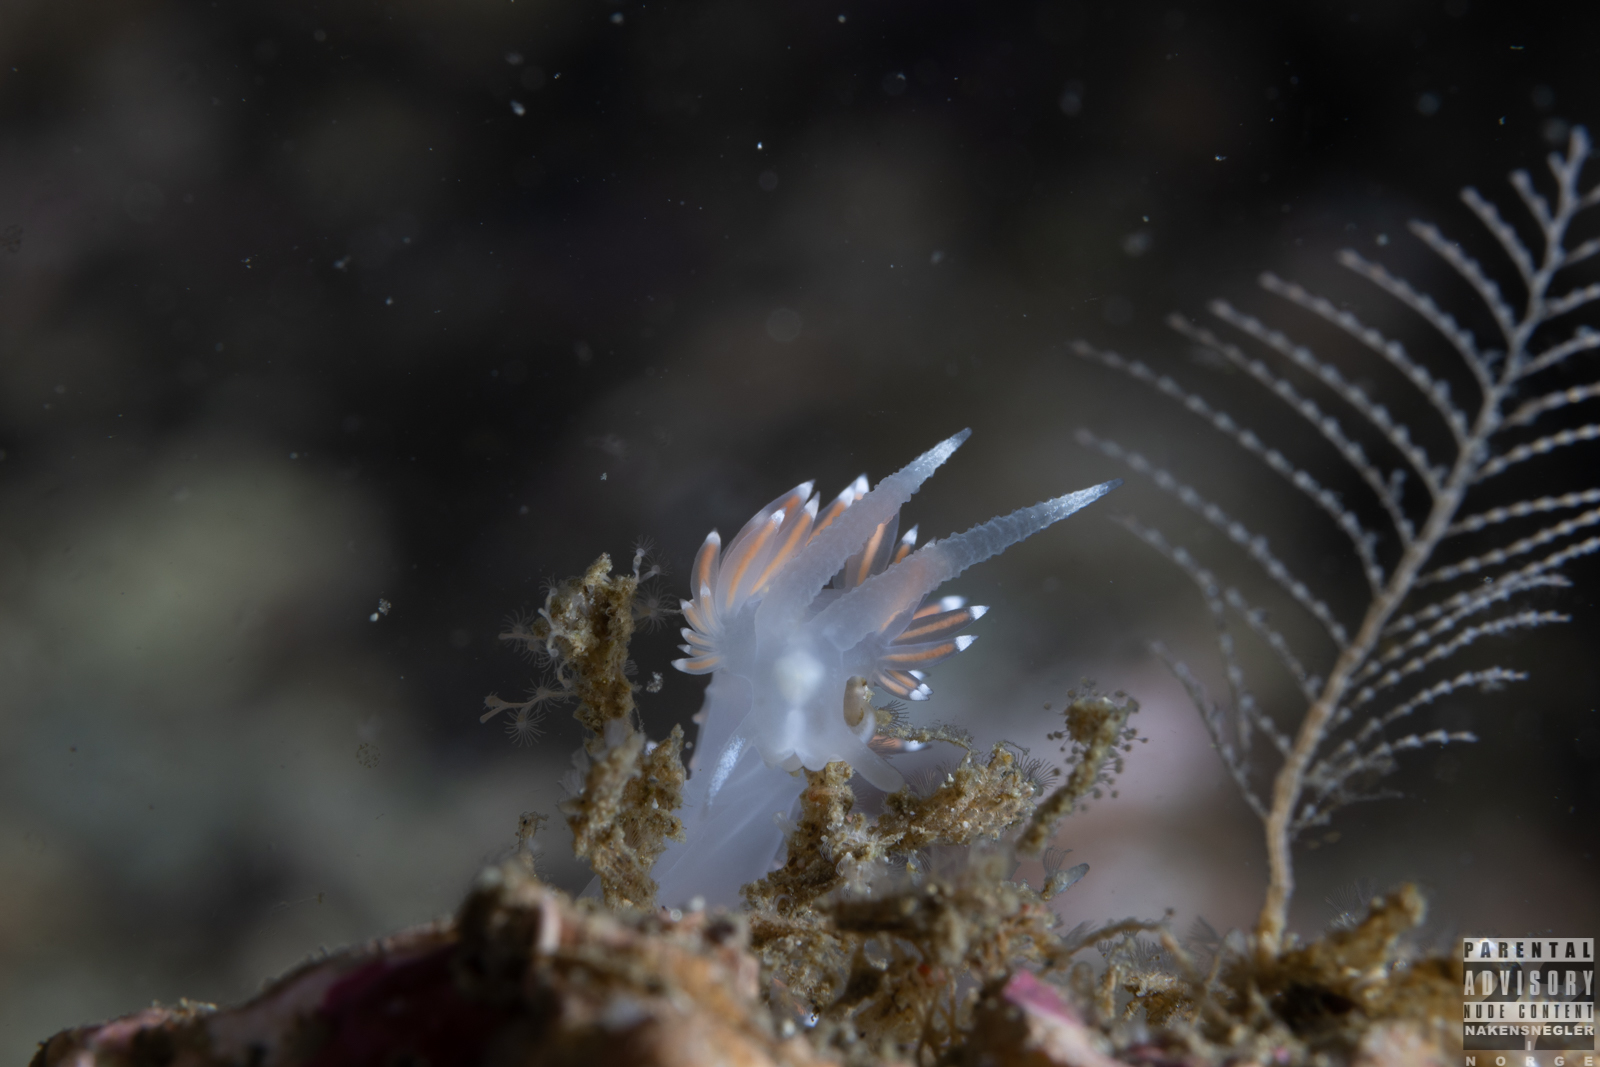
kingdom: Animalia
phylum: Mollusca
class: Gastropoda
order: Nudibranchia
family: Coryphellidae
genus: Coryphella
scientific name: Coryphella browni
